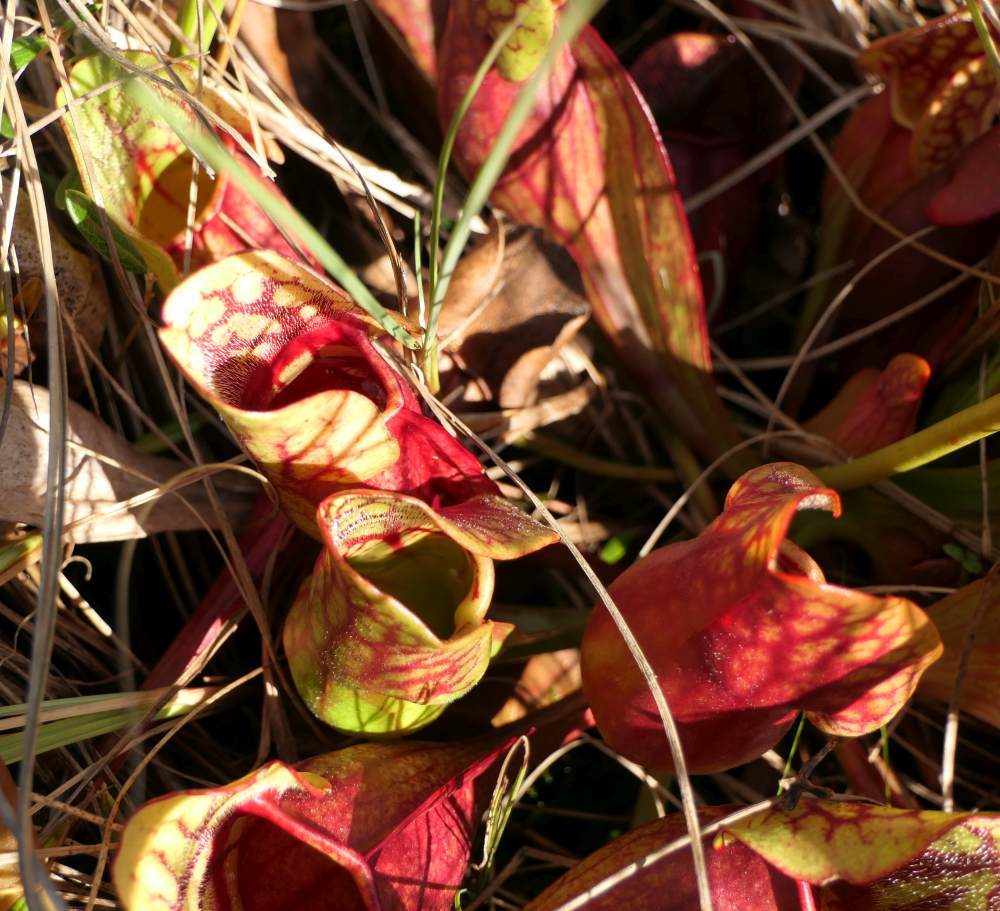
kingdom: Plantae
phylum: Tracheophyta
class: Magnoliopsida
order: Ericales
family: Sarraceniaceae
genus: Sarracenia
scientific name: Sarracenia purpurea
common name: Pitcherplant
